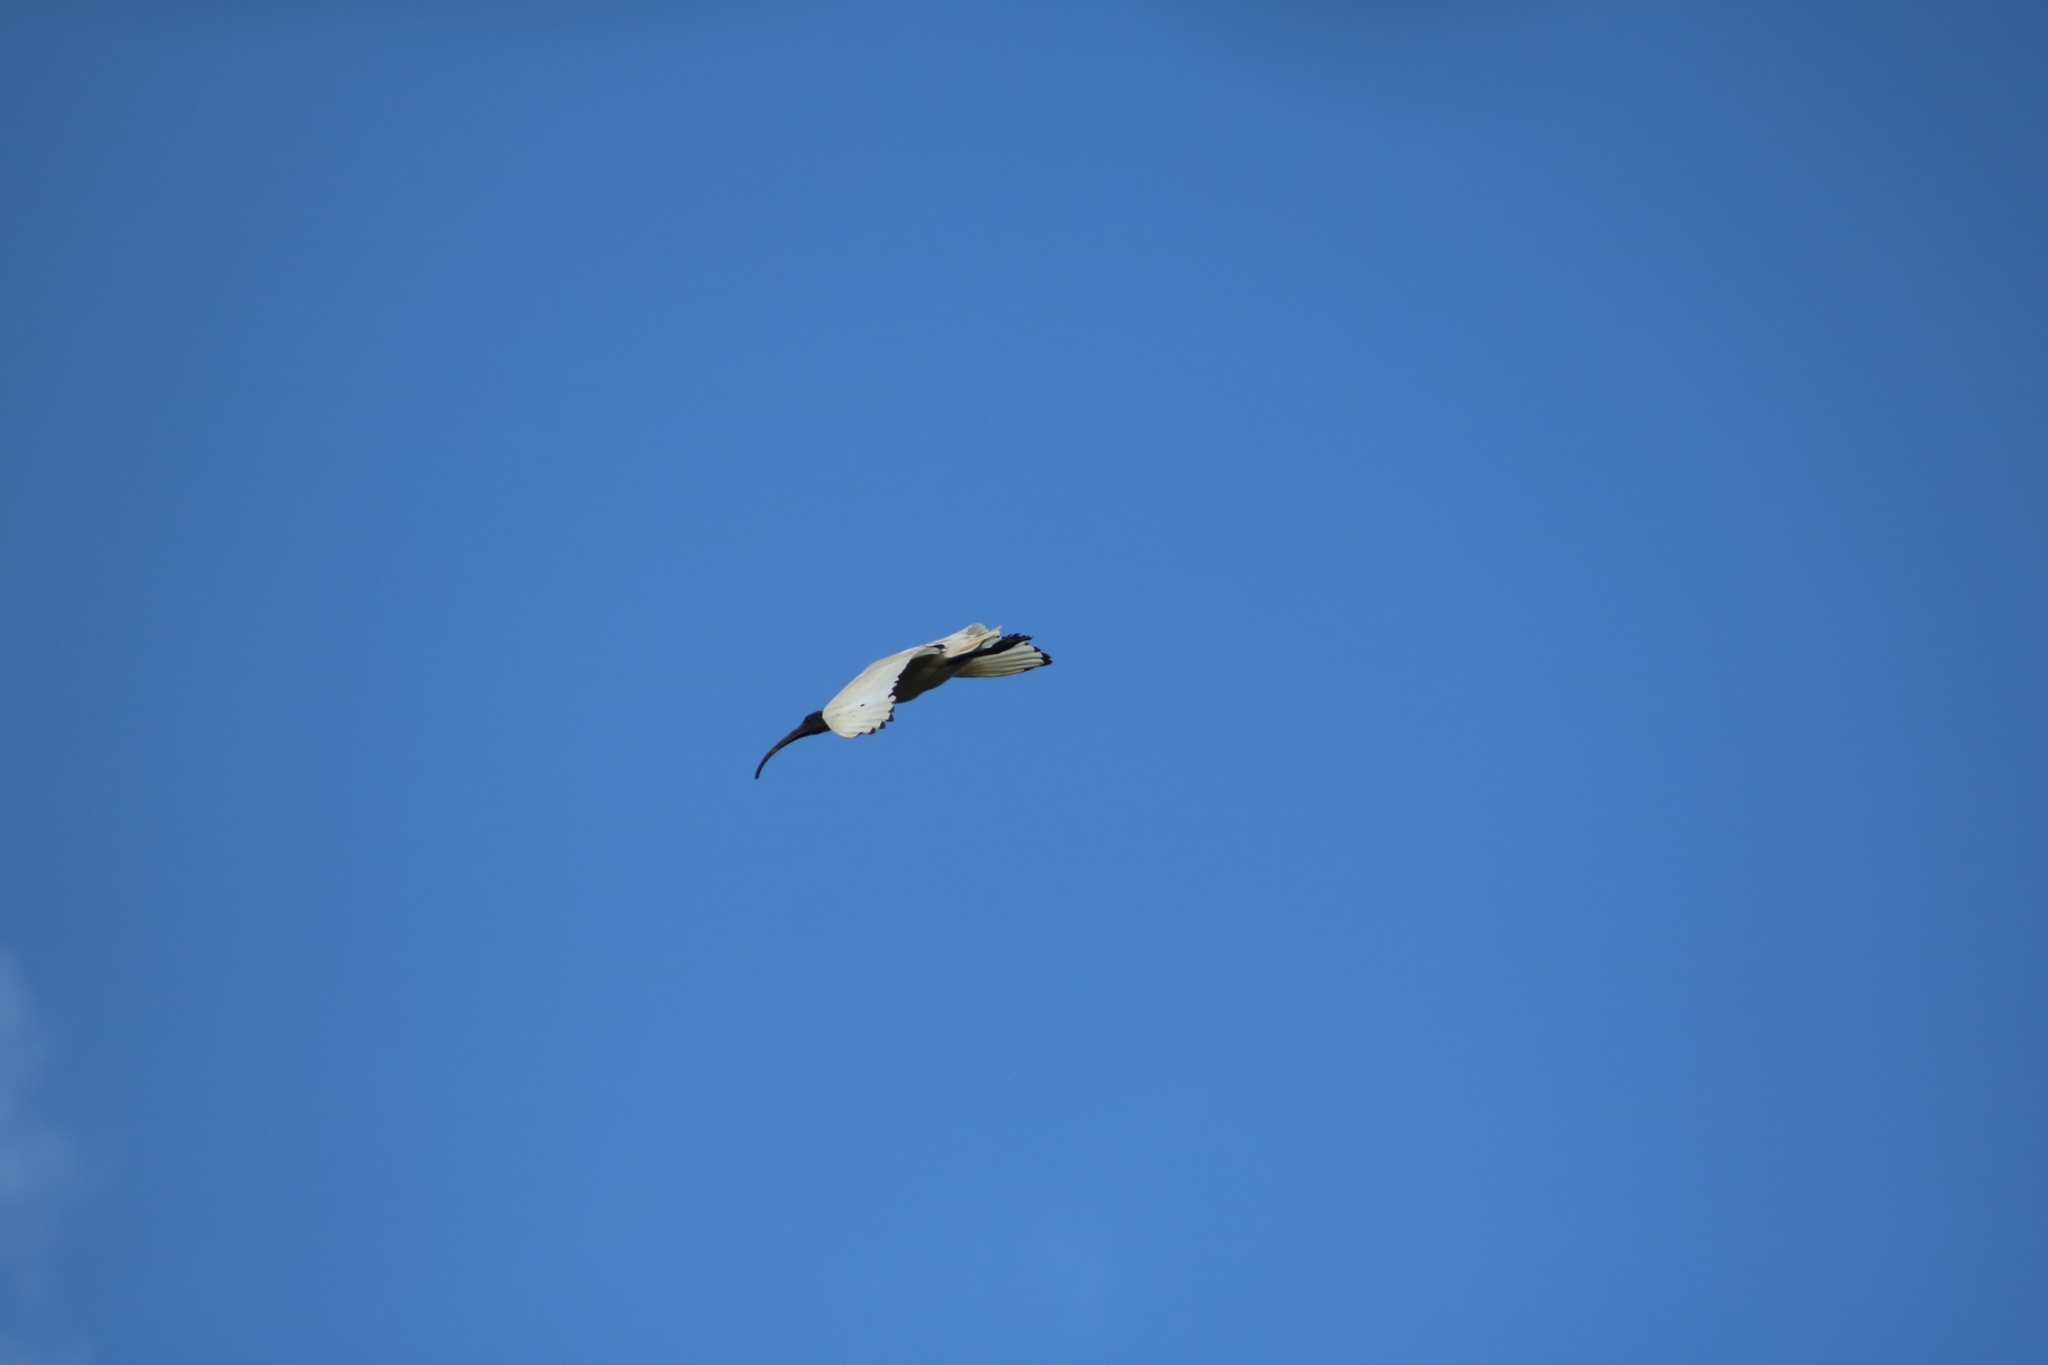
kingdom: Animalia
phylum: Chordata
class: Aves
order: Pelecaniformes
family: Threskiornithidae
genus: Threskiornis
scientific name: Threskiornis molucca
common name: Australian white ibis
